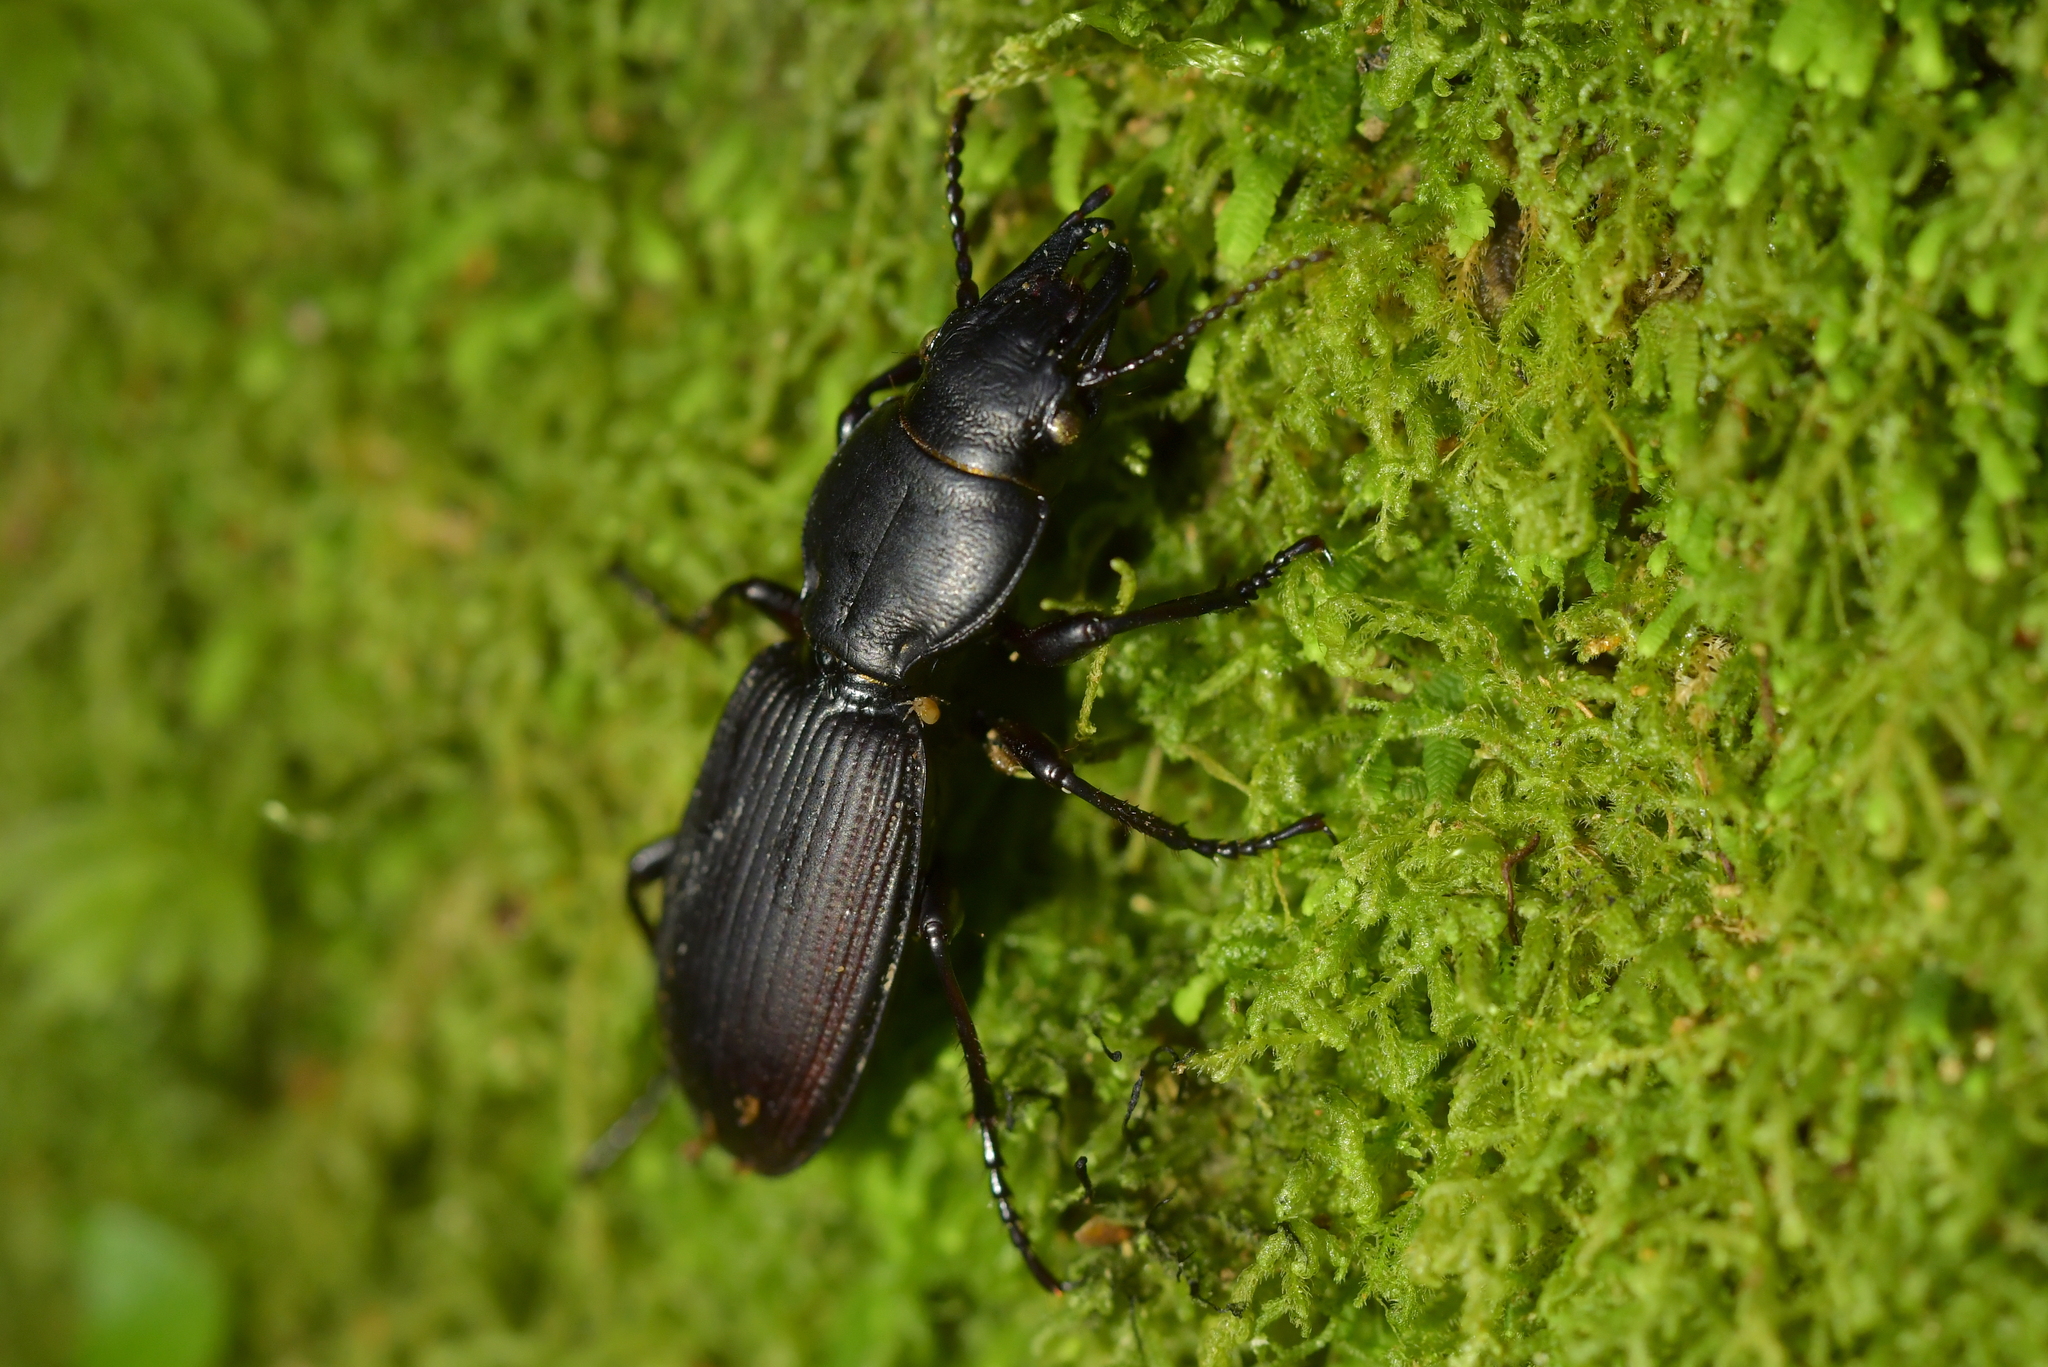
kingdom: Animalia
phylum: Arthropoda
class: Insecta
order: Coleoptera
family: Carabidae
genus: Mecodema
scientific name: Mecodema simplex
